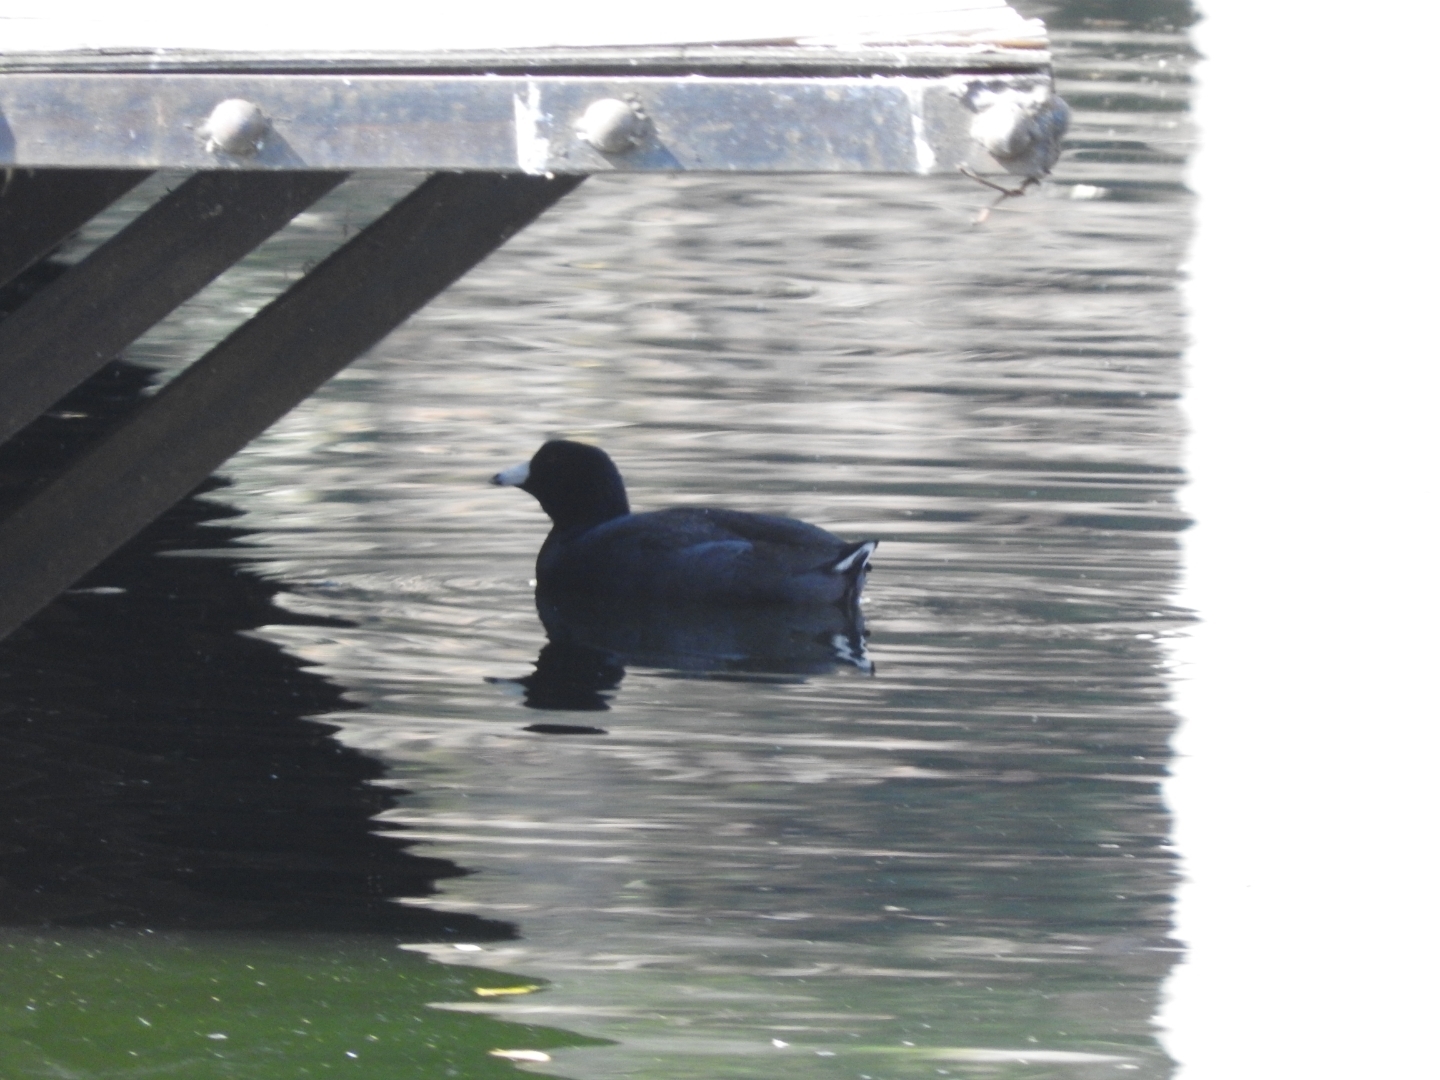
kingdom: Animalia
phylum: Chordata
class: Aves
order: Gruiformes
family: Rallidae
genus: Fulica
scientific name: Fulica americana
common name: American coot
